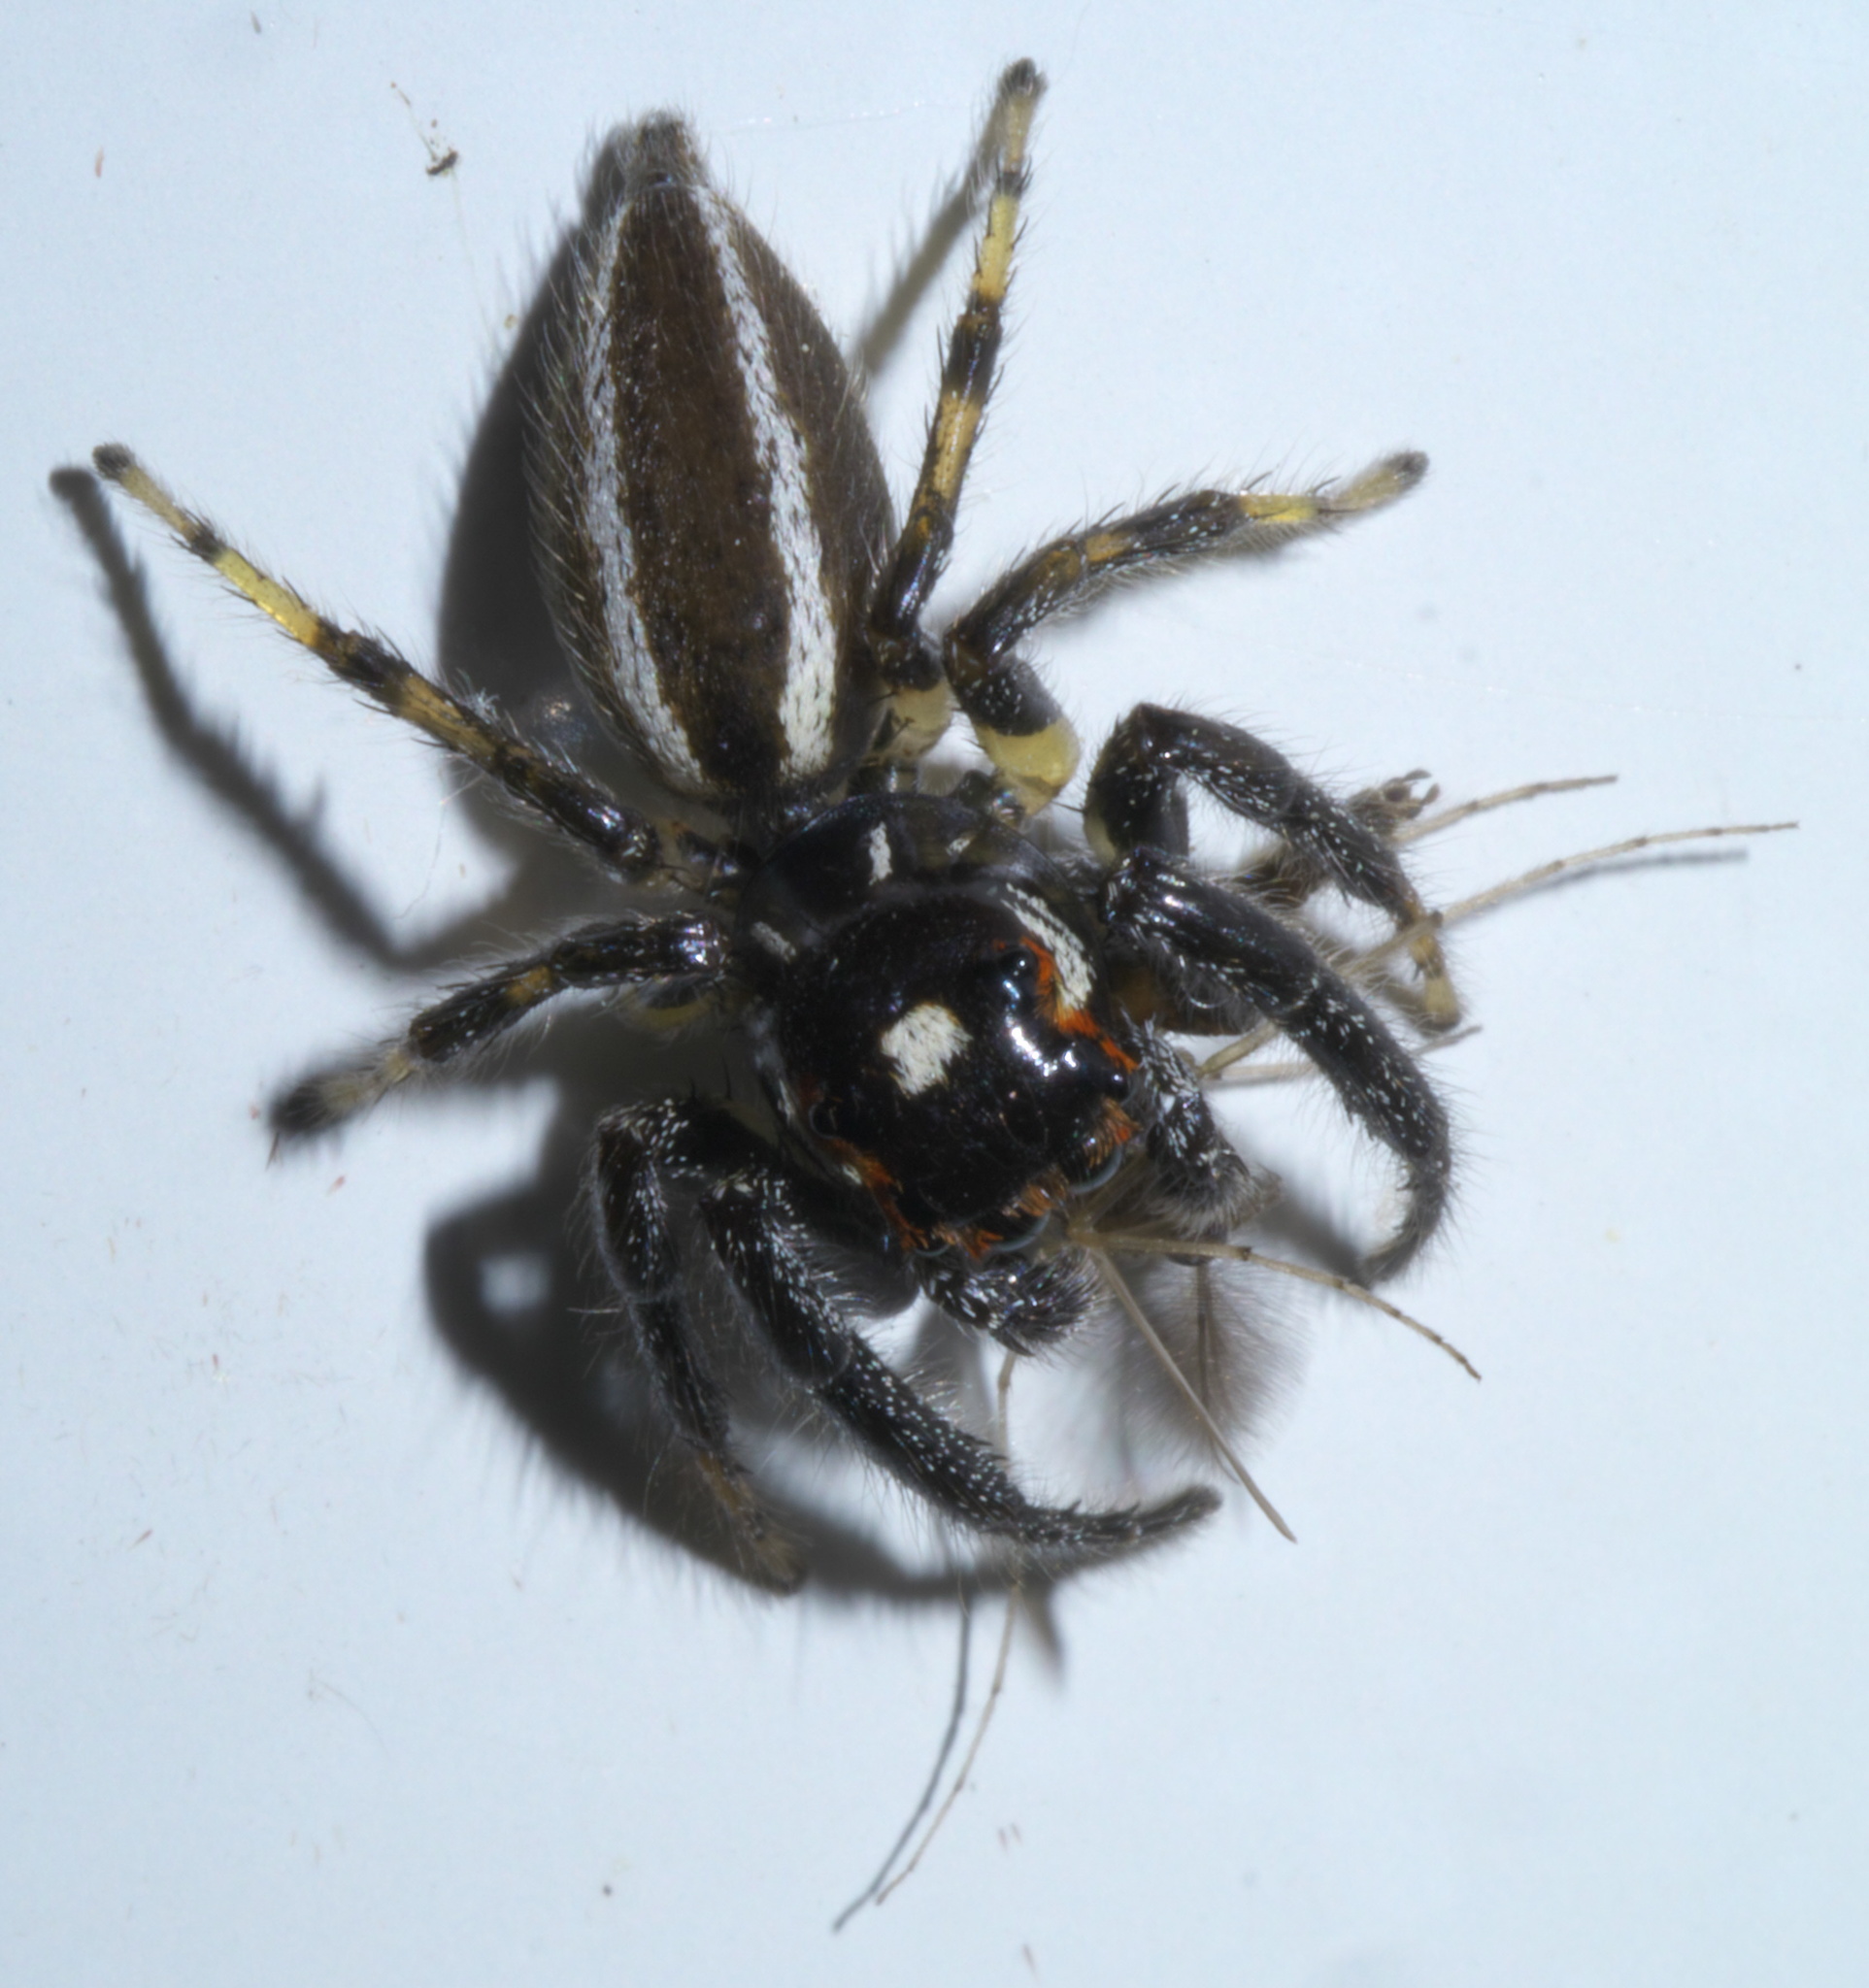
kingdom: Animalia
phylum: Arthropoda
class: Arachnida
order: Araneae
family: Salticidae
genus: Colonus
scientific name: Colonus sylvanus
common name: Jumping spiders
